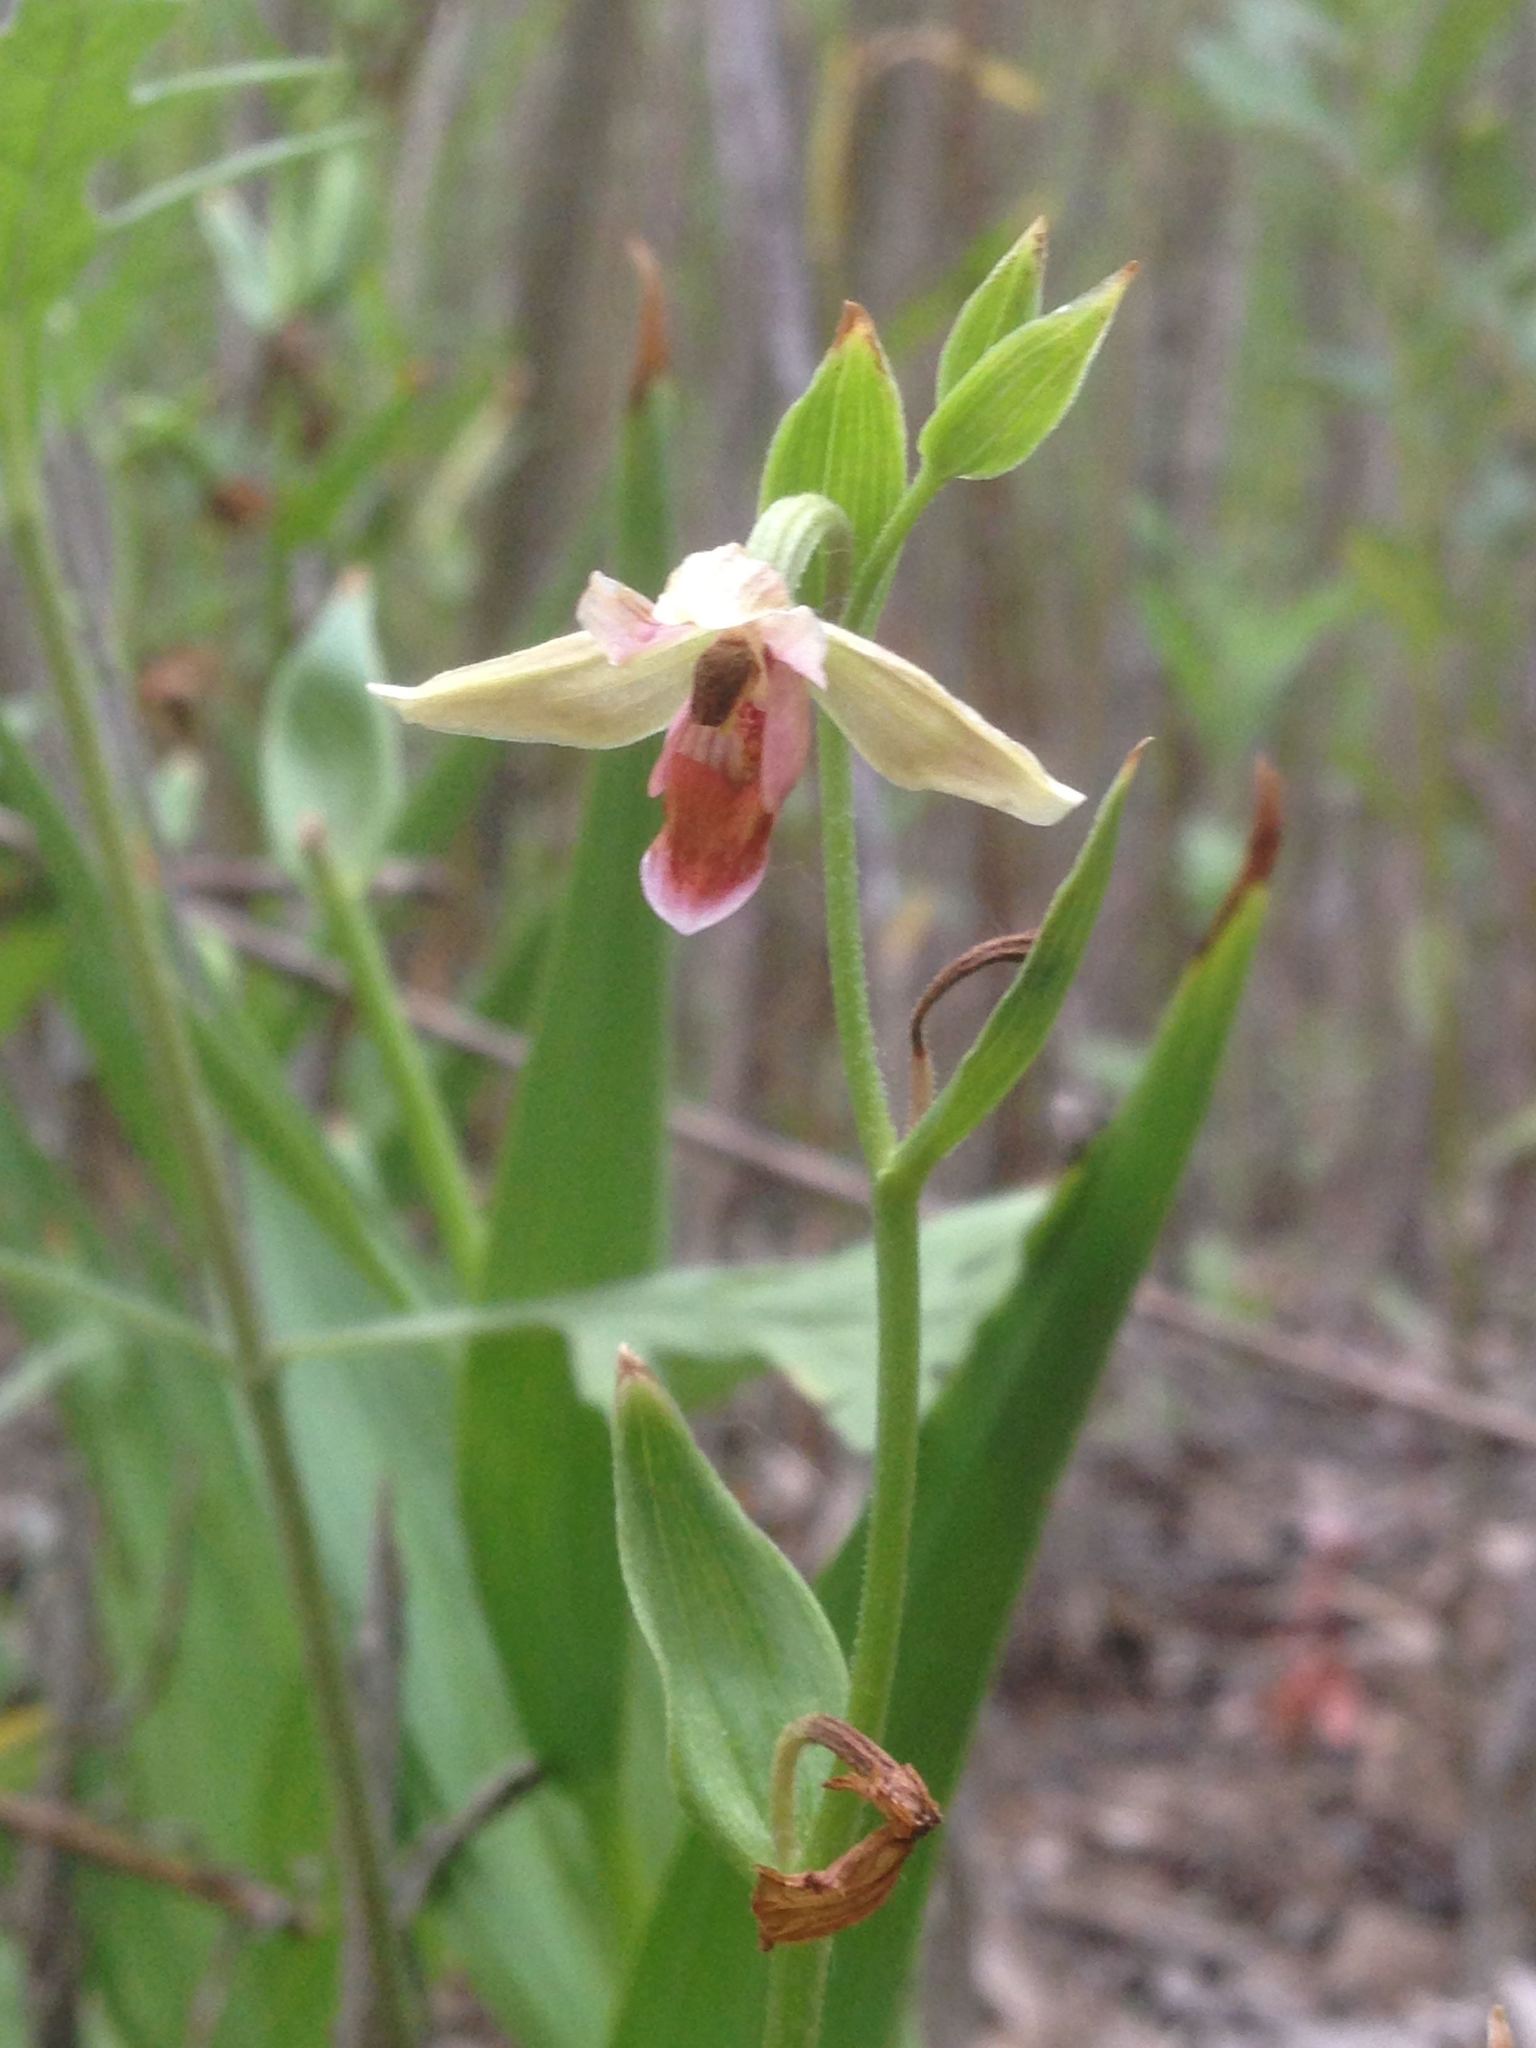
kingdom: Plantae
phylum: Tracheophyta
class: Liliopsida
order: Asparagales
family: Orchidaceae
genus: Epipactis
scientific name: Epipactis gigantea
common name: Chatterbox
